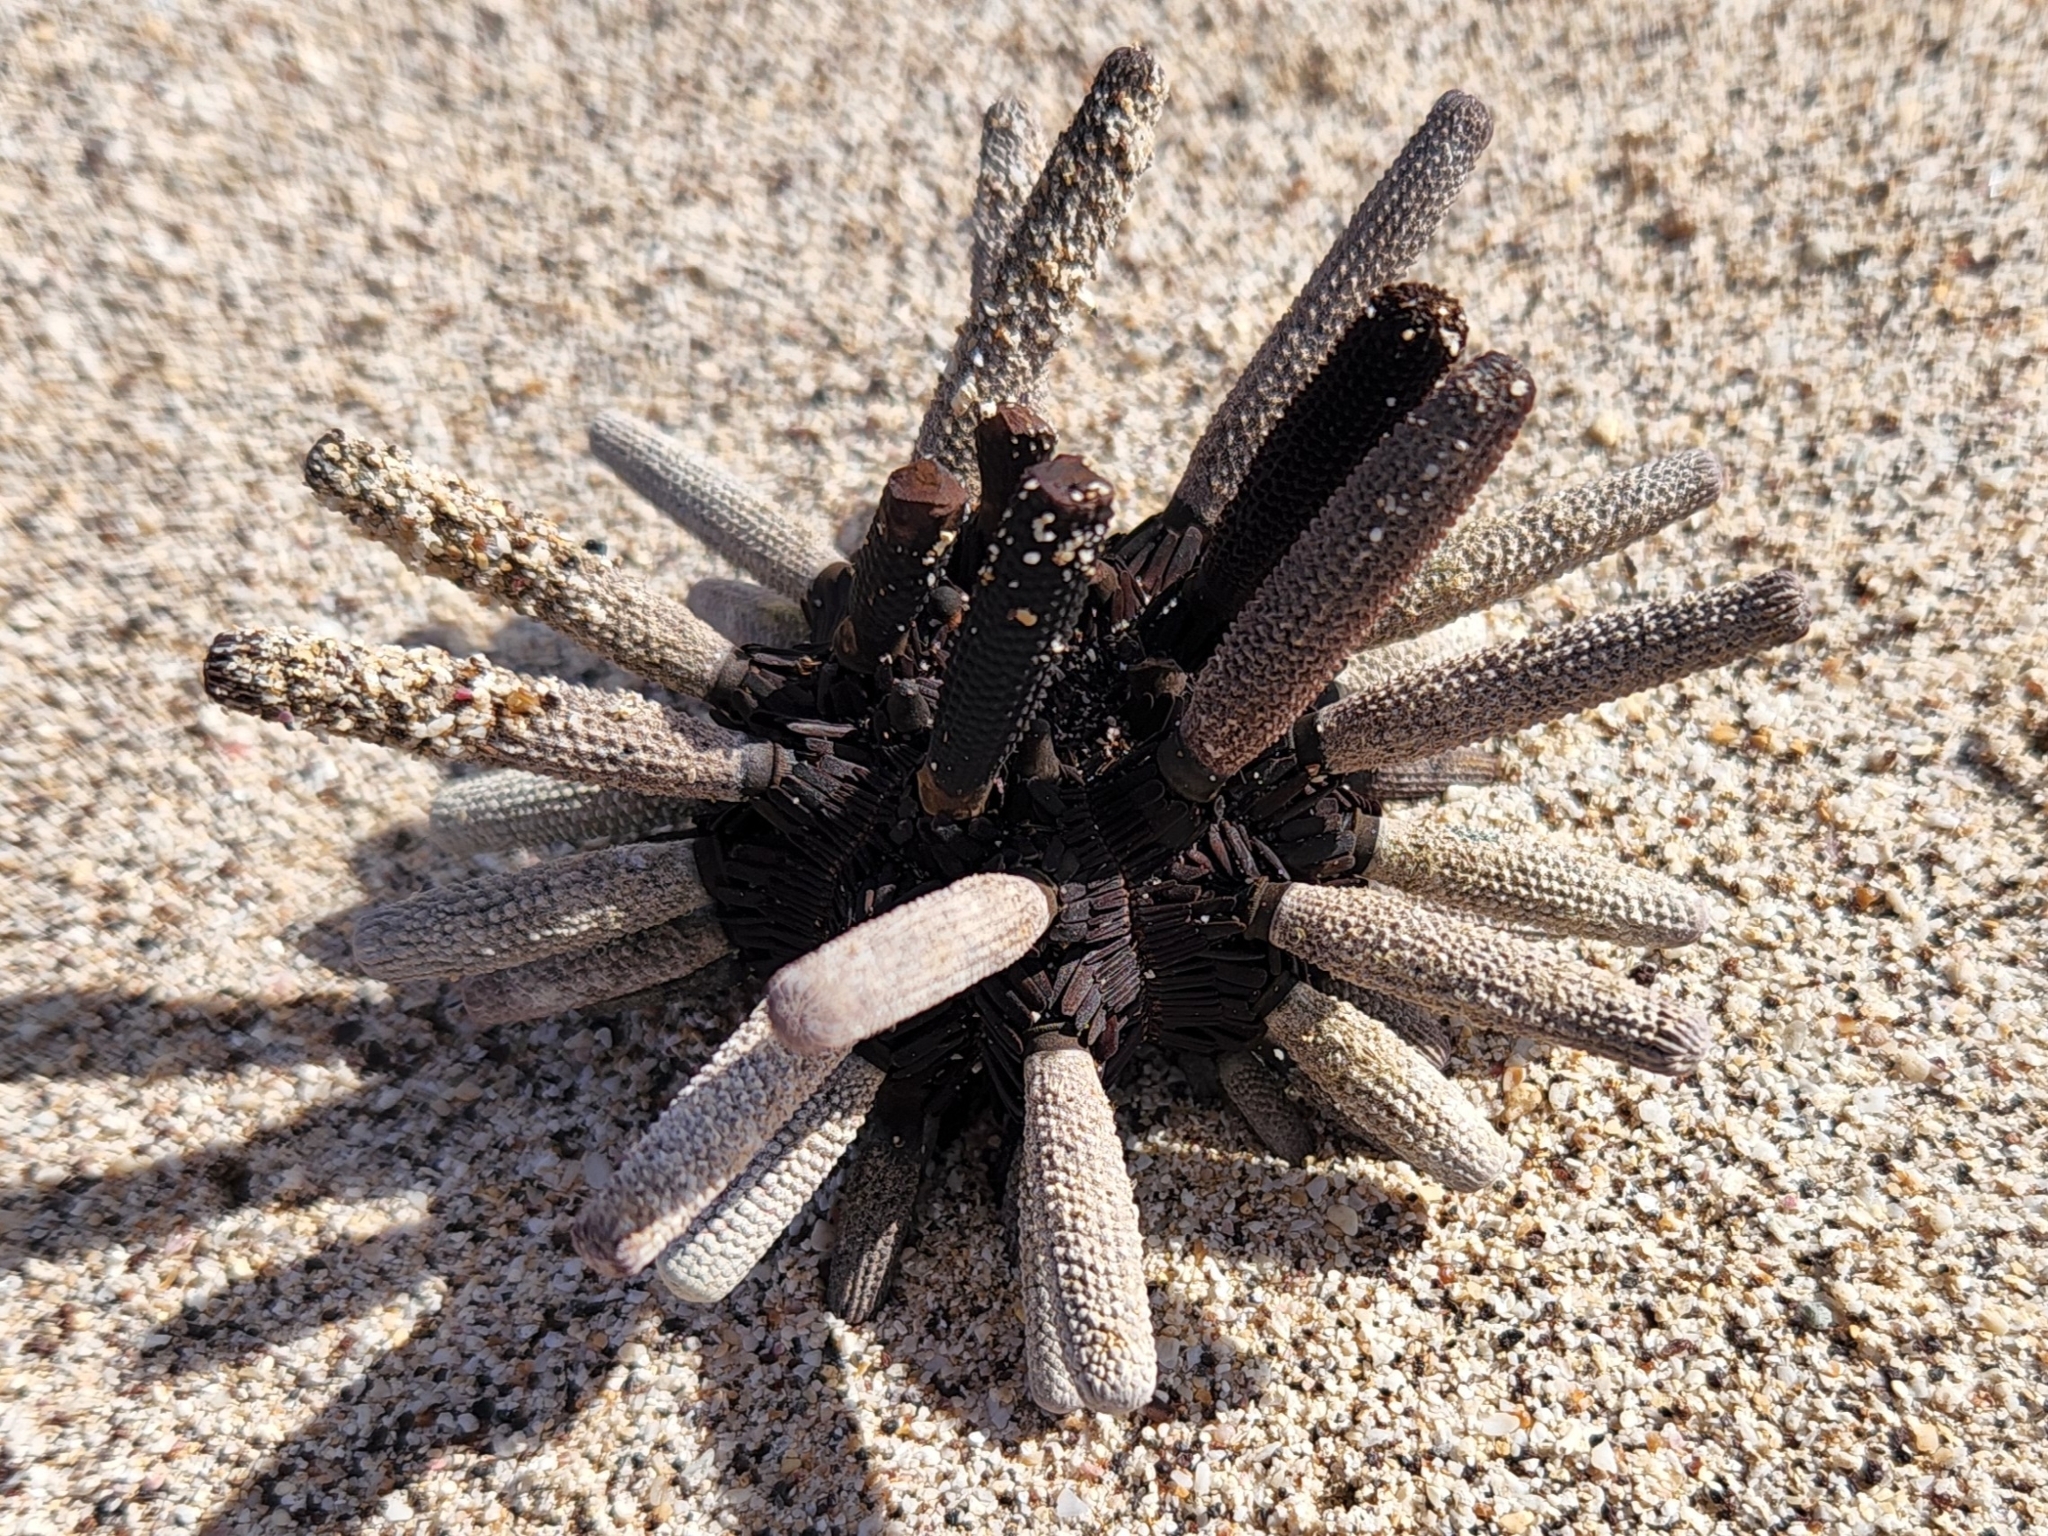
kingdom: Animalia
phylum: Echinodermata
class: Echinoidea
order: Cidaroida
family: Cidaridae
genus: Eucidaris
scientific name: Eucidaris thouarsii
